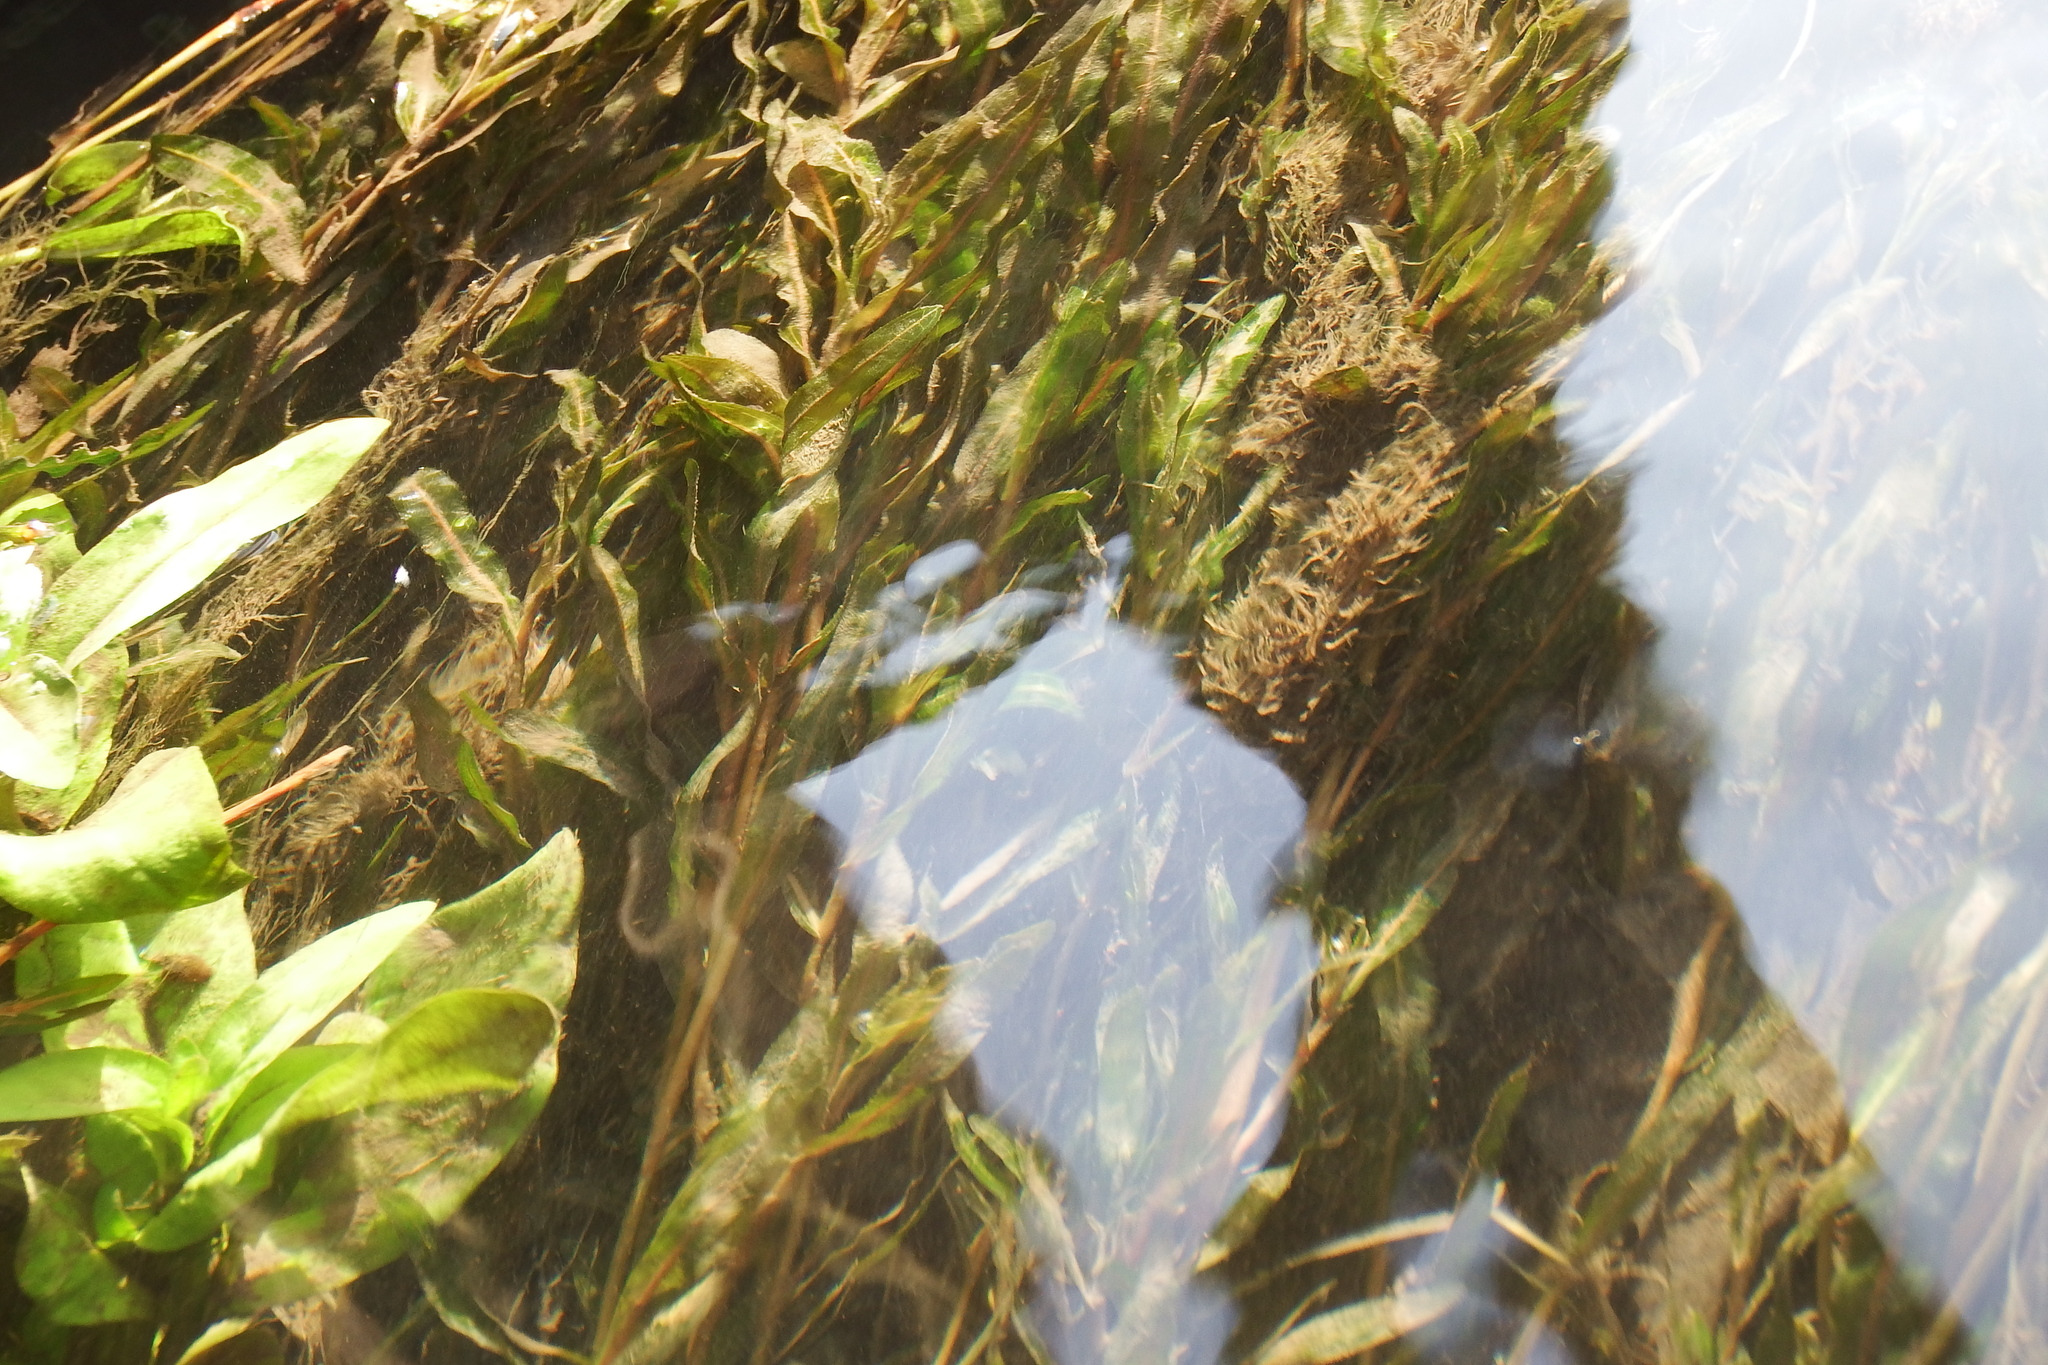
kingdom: Plantae
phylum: Tracheophyta
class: Liliopsida
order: Alismatales
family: Potamogetonaceae
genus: Potamogeton
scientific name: Potamogeton crispus
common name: Curled pondweed
